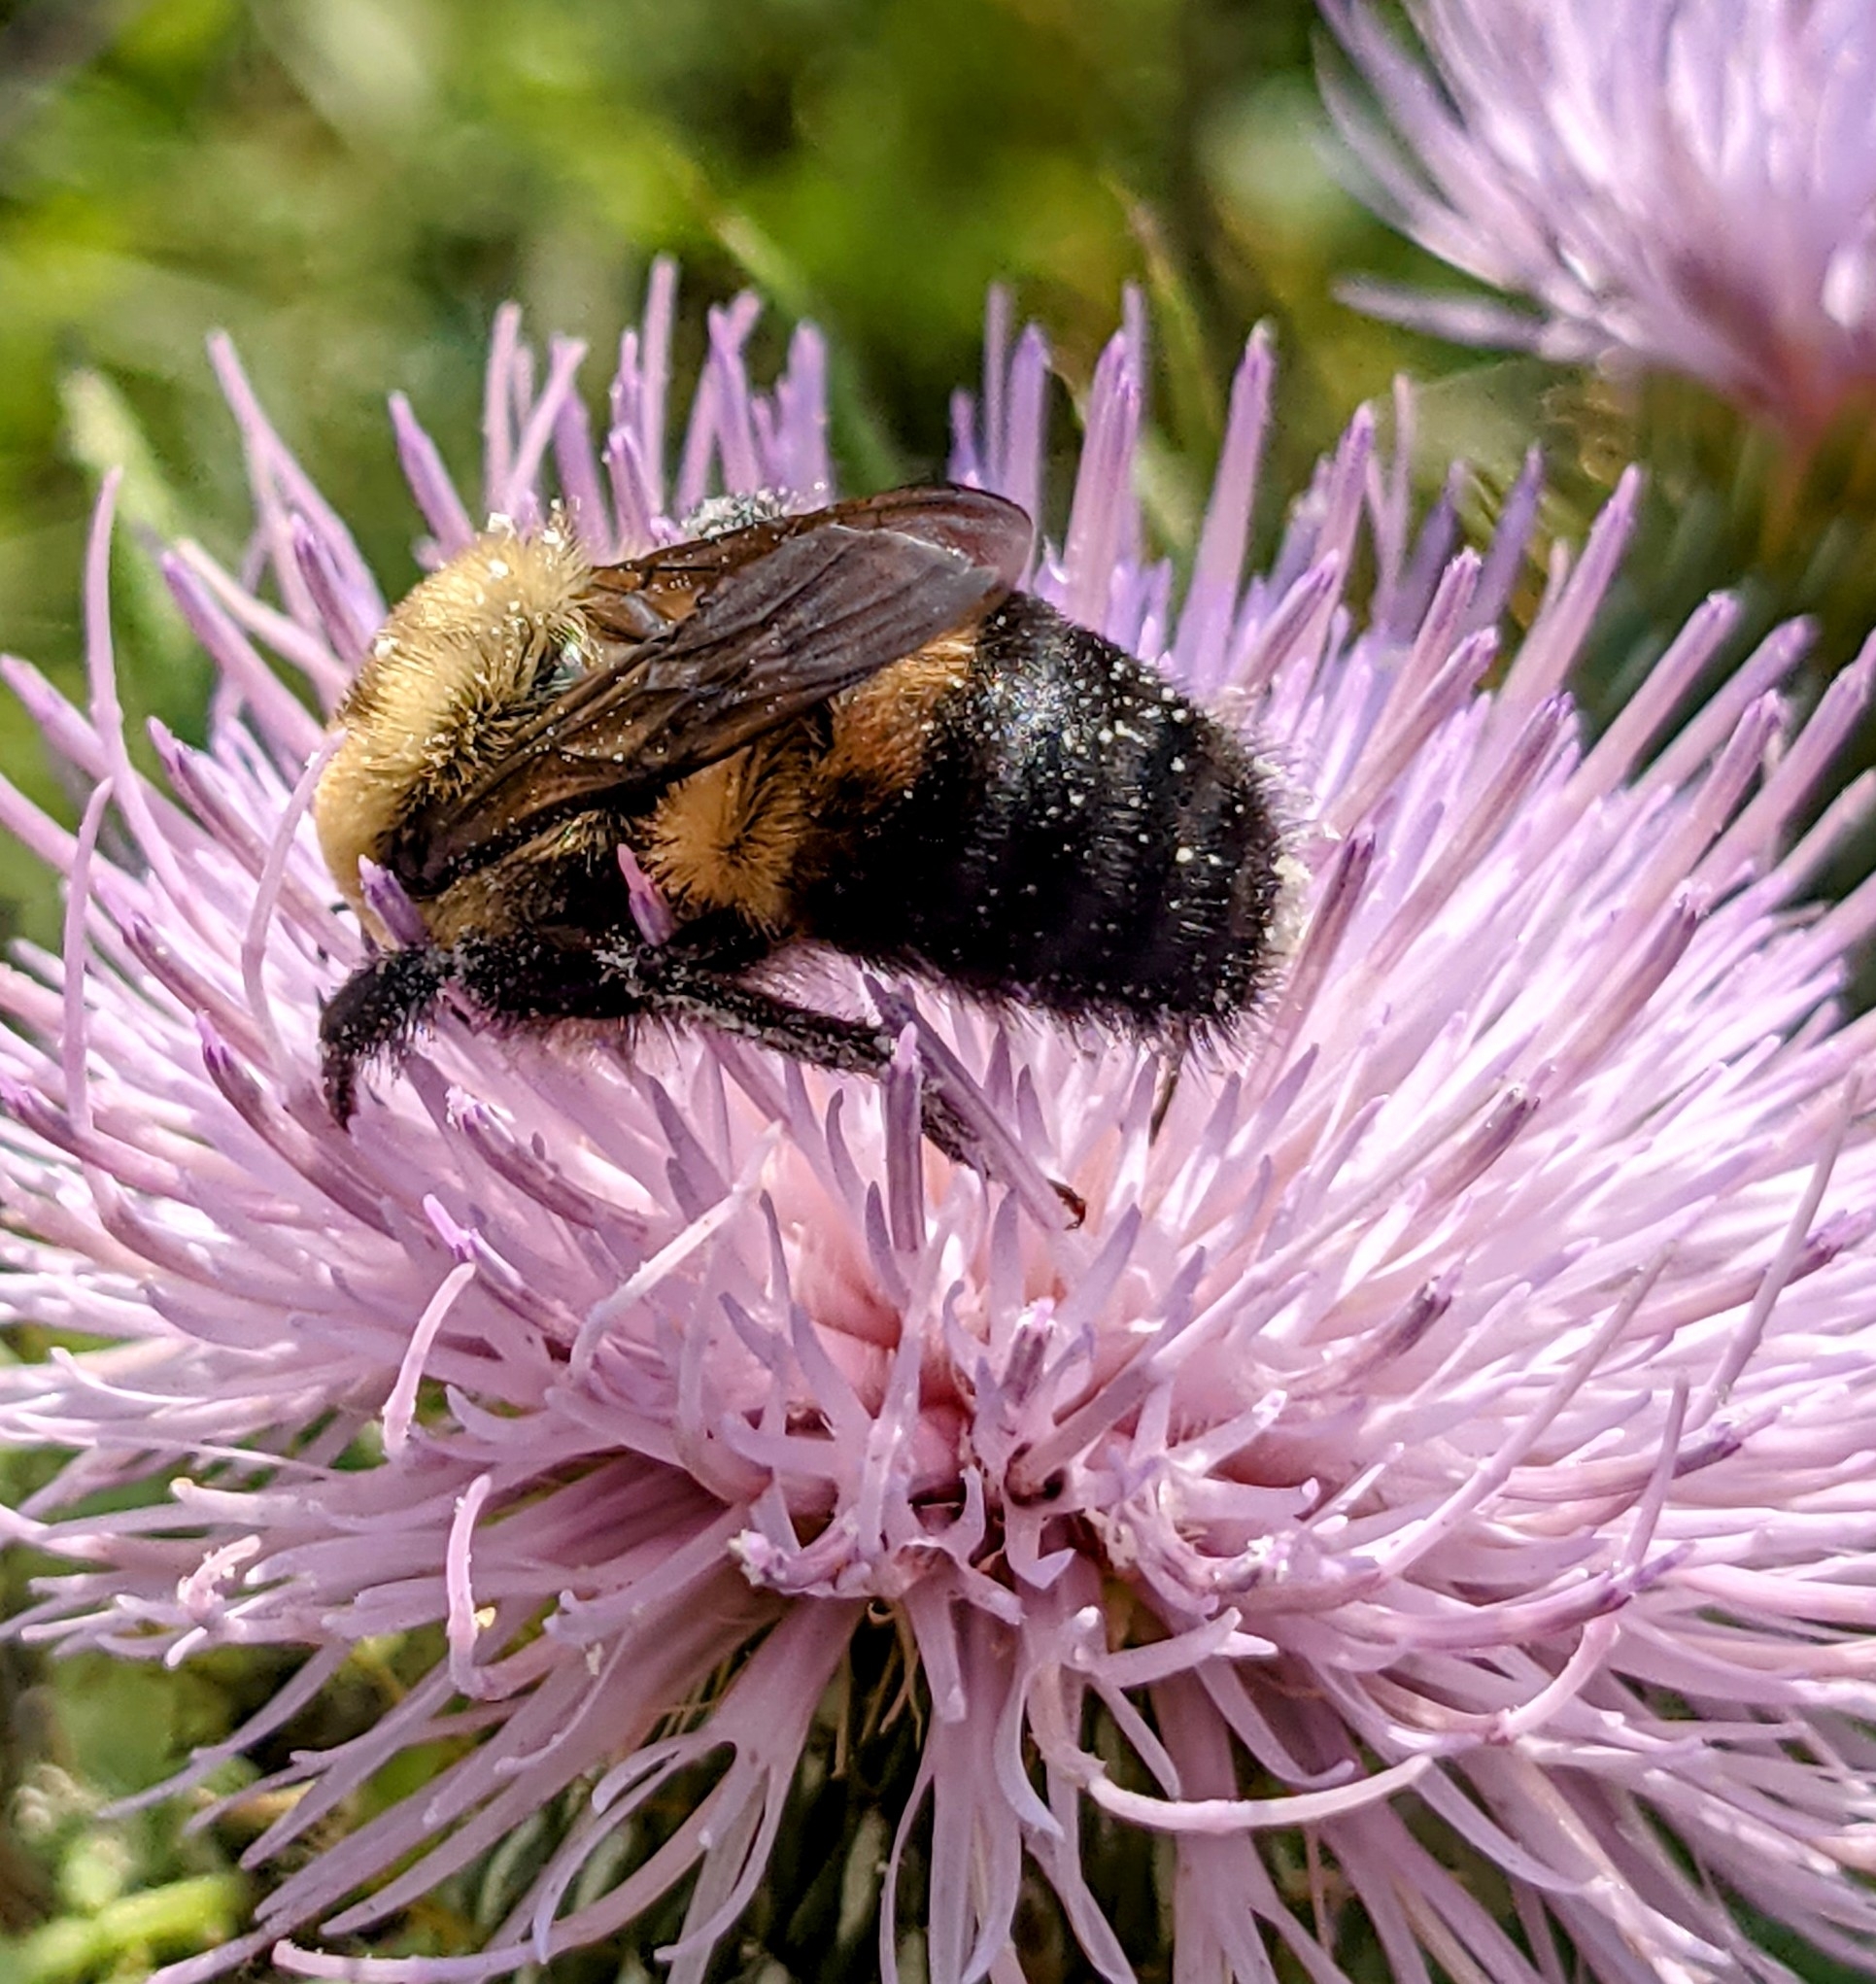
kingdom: Animalia
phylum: Arthropoda
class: Insecta
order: Hymenoptera
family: Apidae
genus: Bombus
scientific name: Bombus griseocollis
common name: Brown-belted bumble bee
